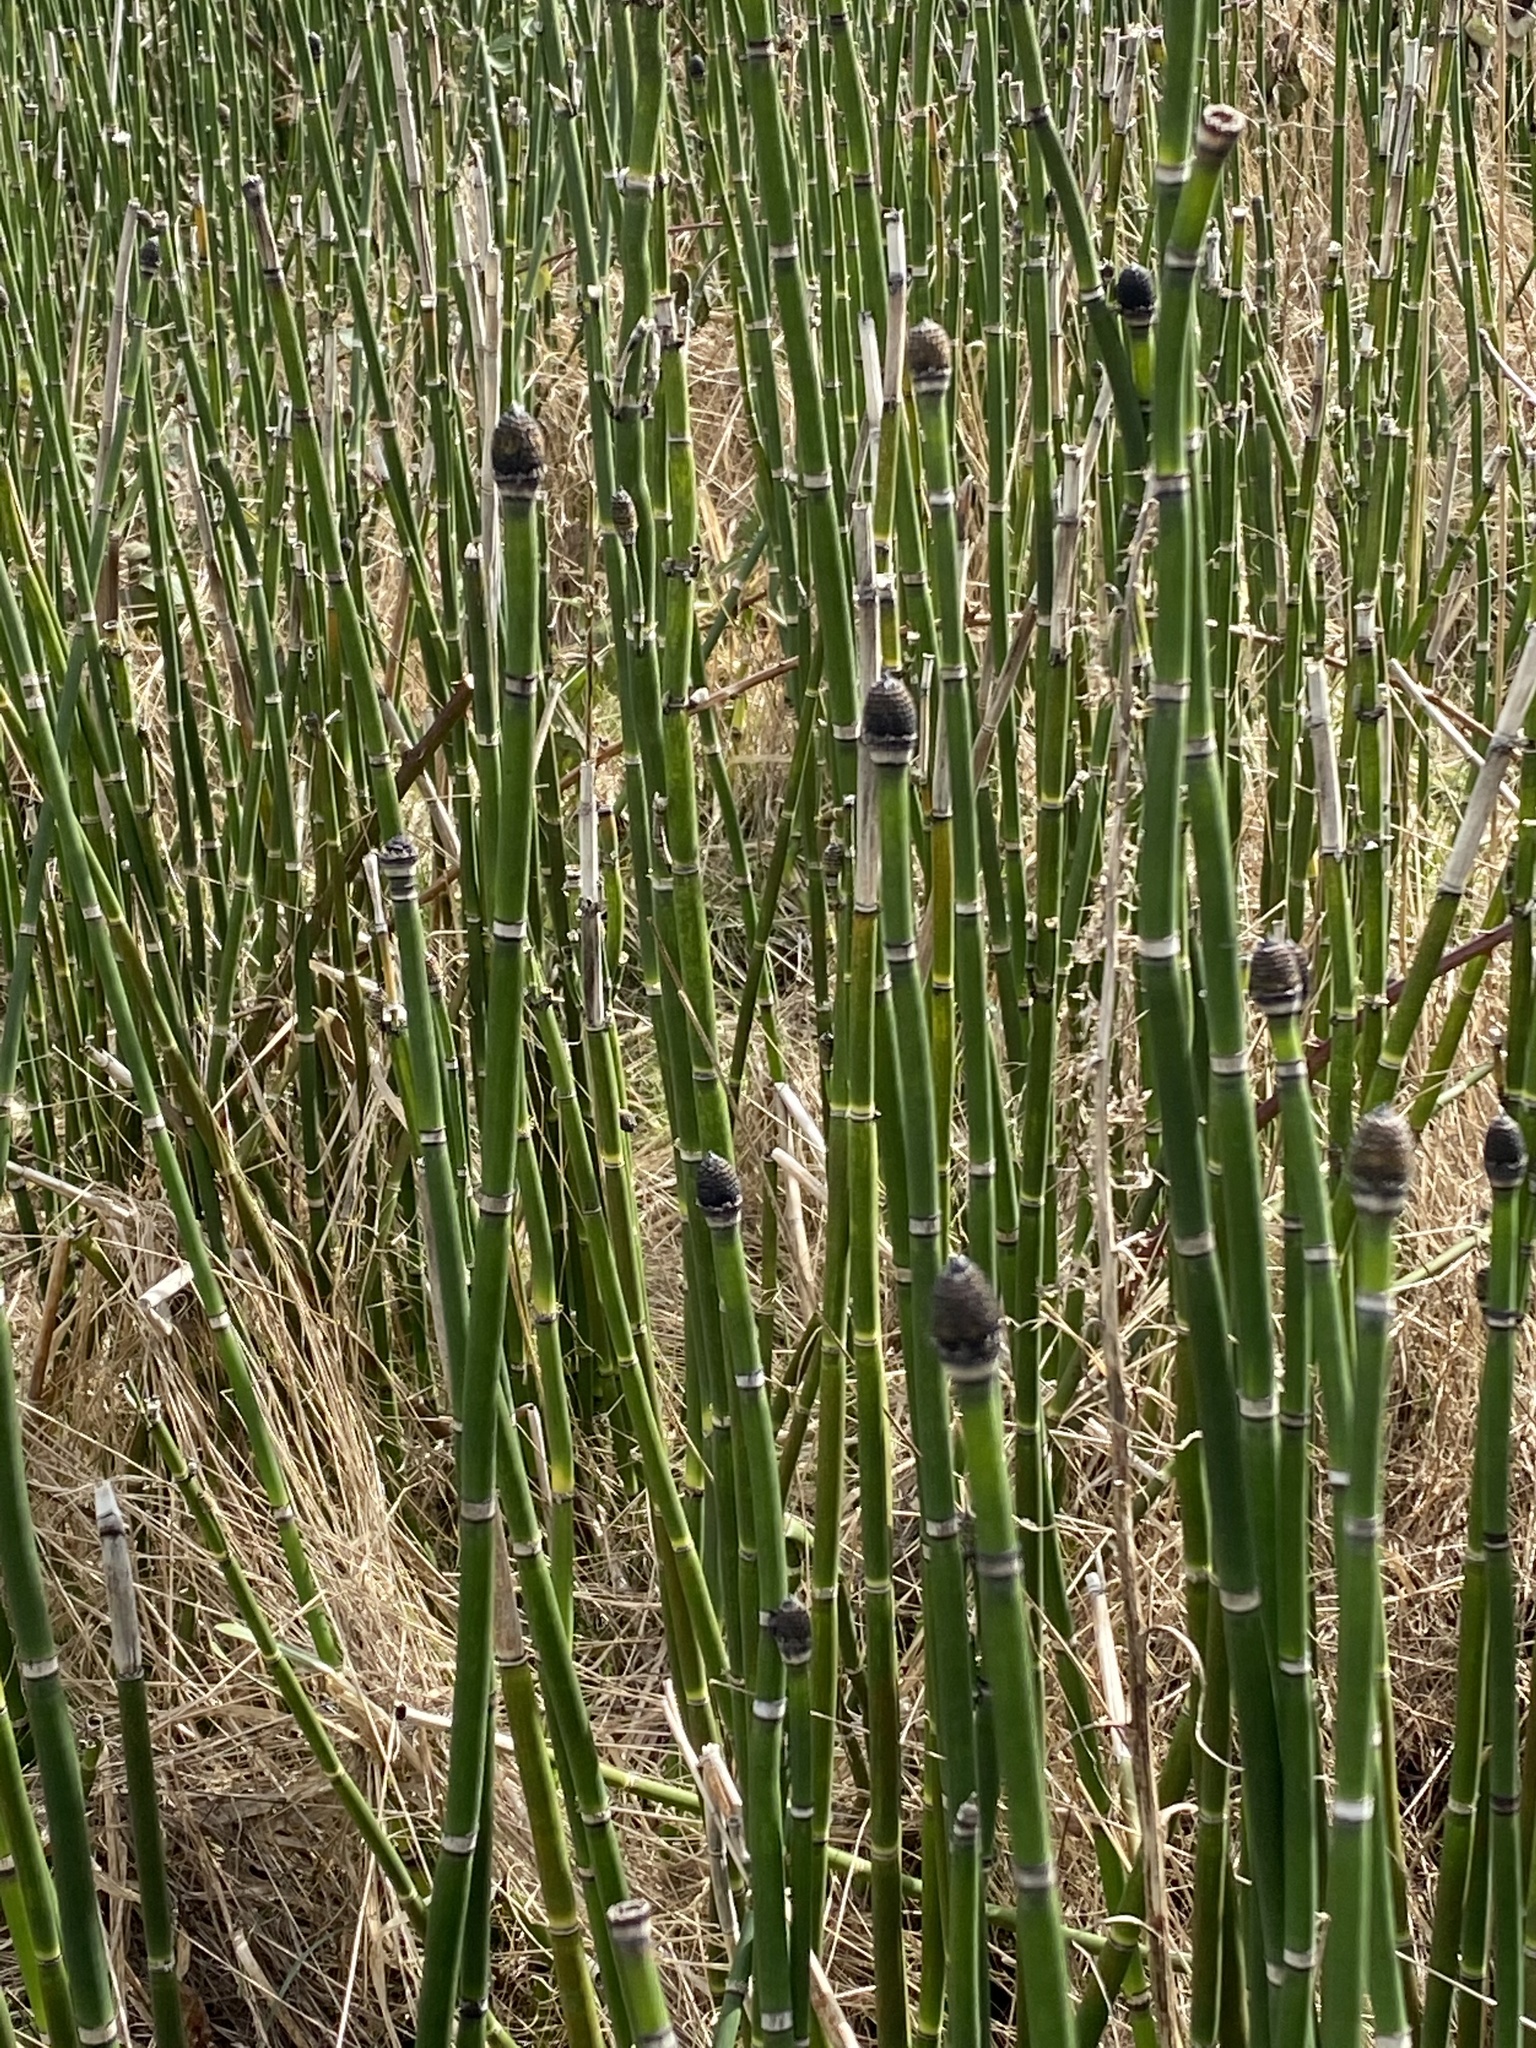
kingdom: Plantae
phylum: Tracheophyta
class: Polypodiopsida
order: Equisetales
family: Equisetaceae
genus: Equisetum
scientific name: Equisetum praealtum
